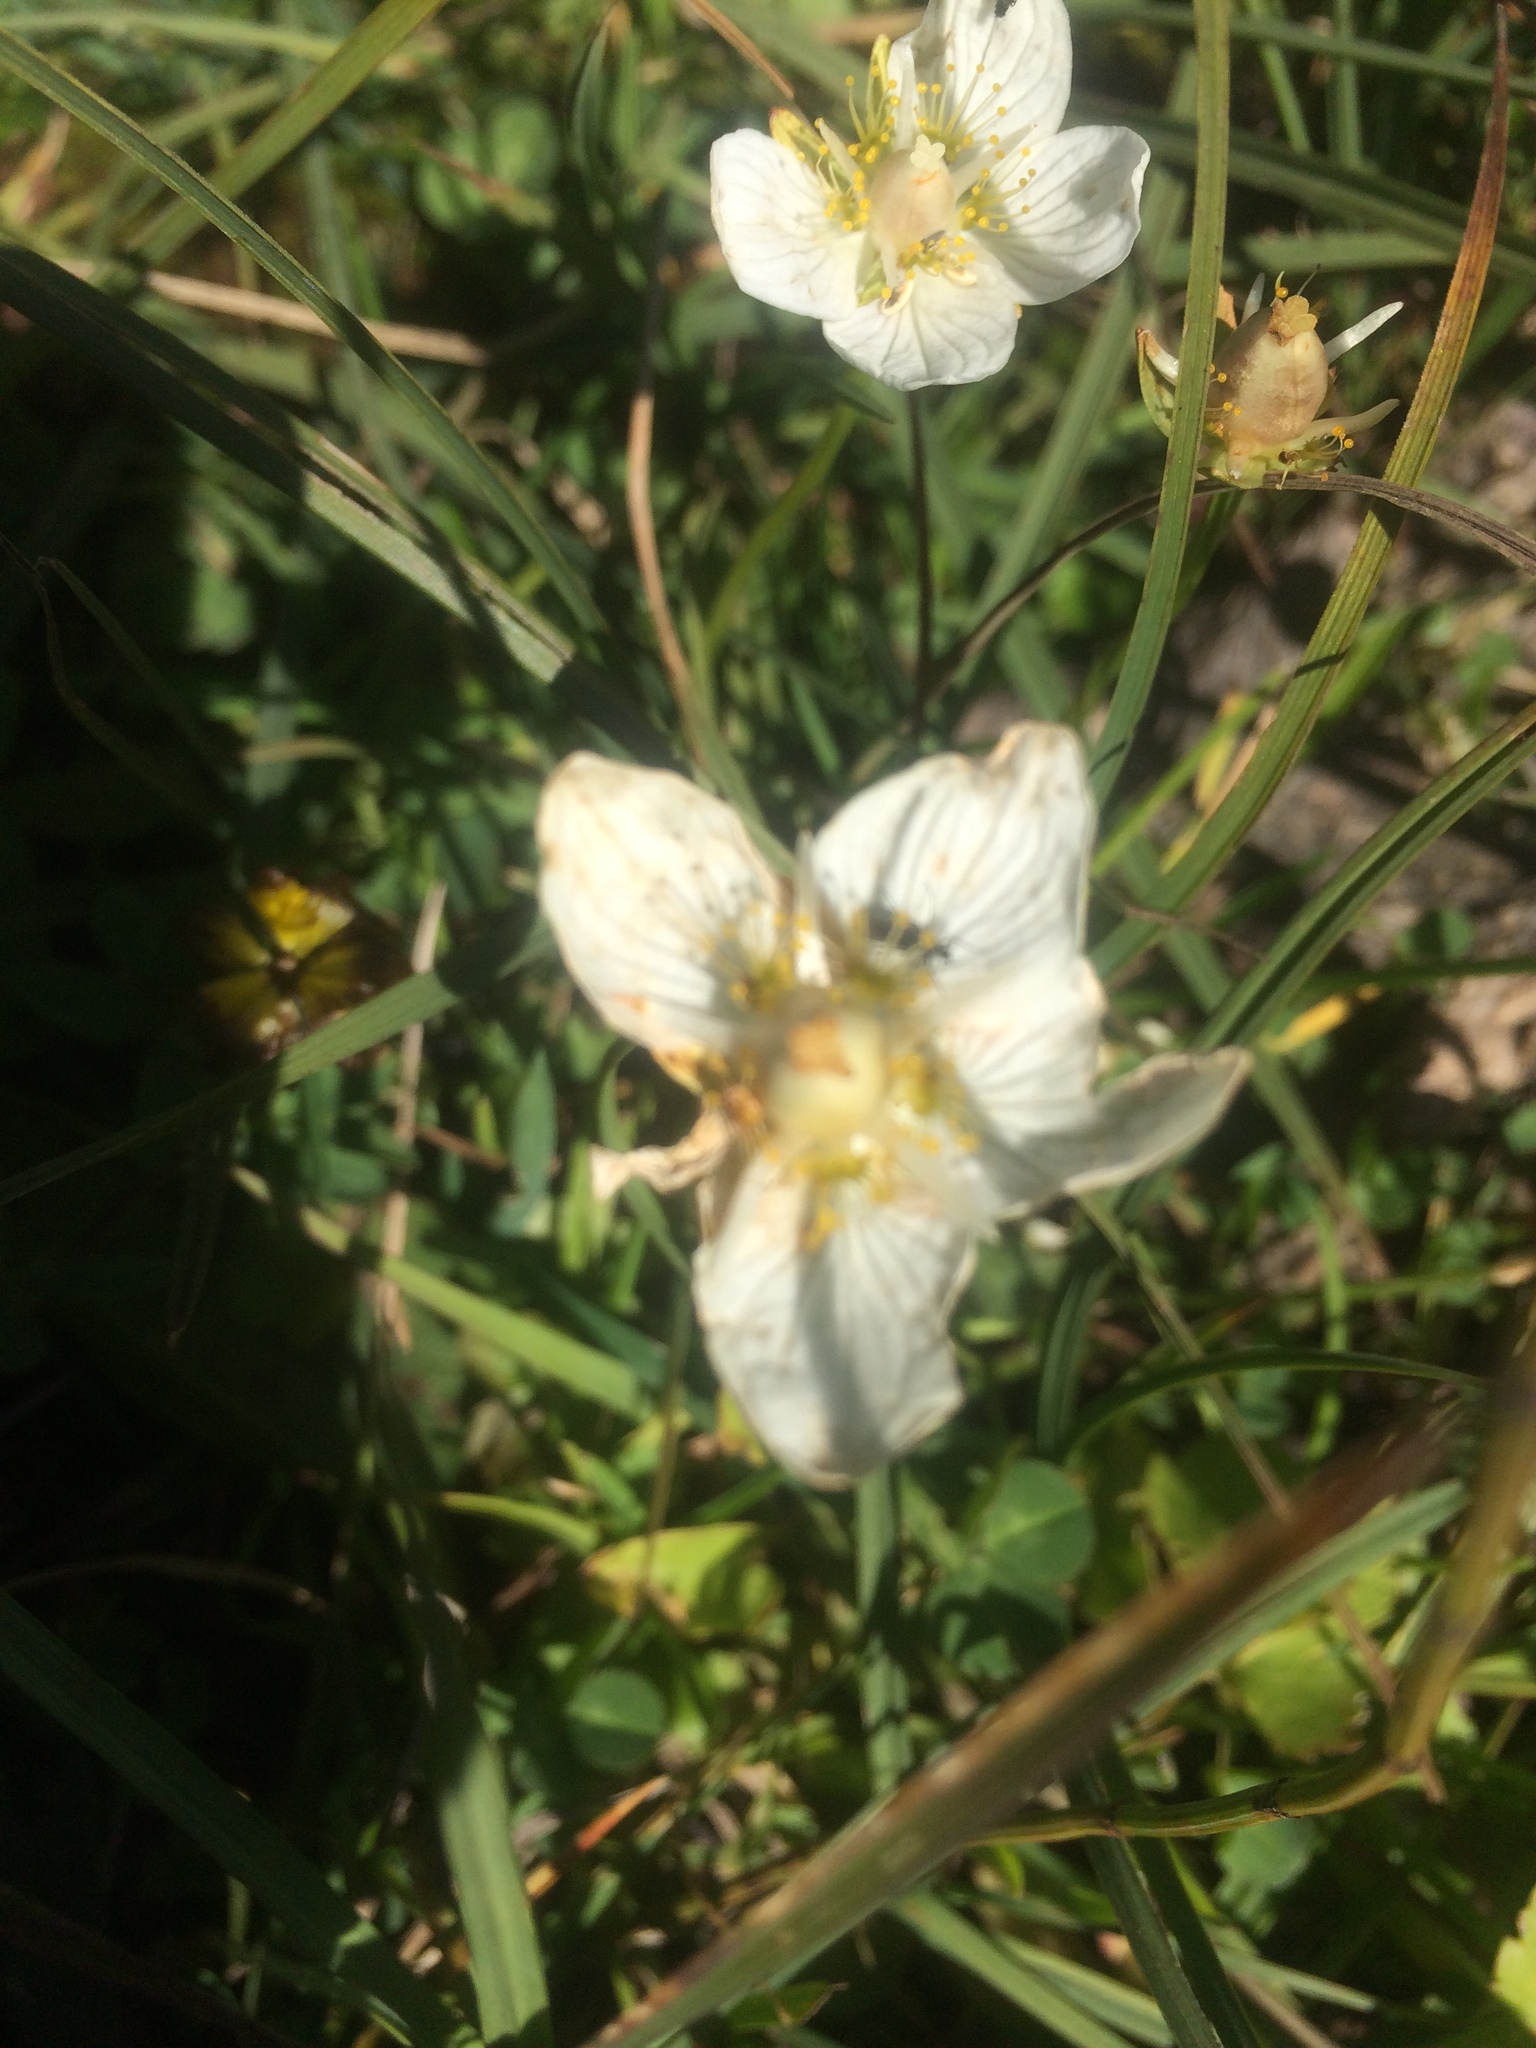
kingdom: Plantae
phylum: Tracheophyta
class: Magnoliopsida
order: Celastrales
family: Parnassiaceae
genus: Parnassia
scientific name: Parnassia palustris
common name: Grass-of-parnassus
